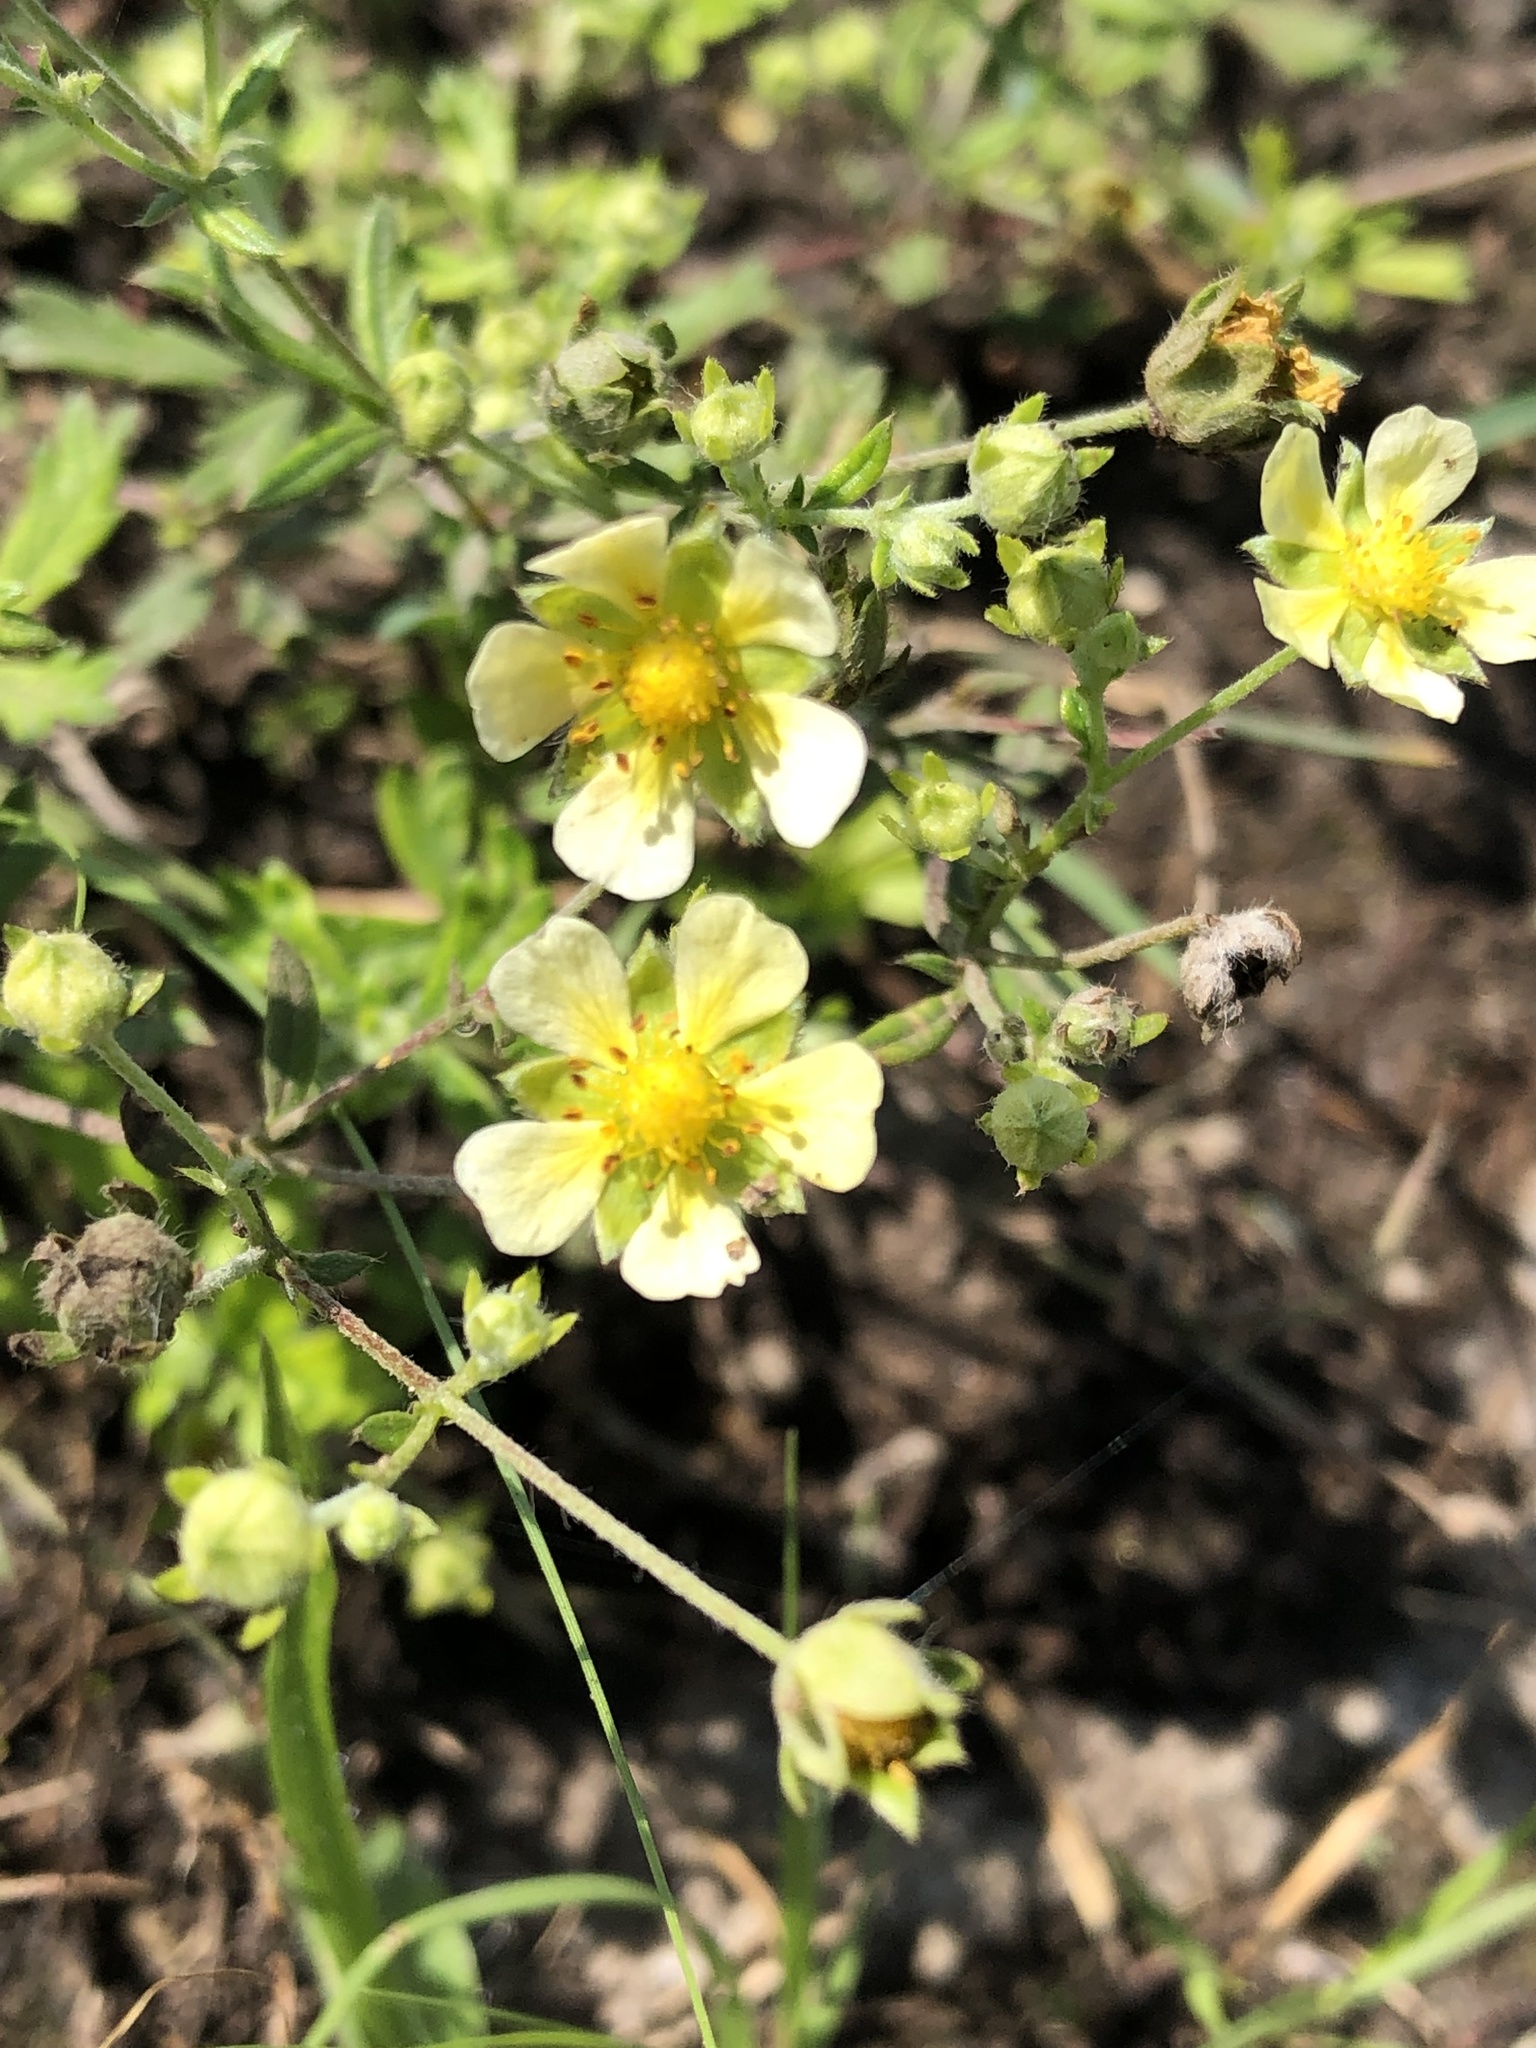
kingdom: Plantae
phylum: Tracheophyta
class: Magnoliopsida
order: Rosales
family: Rosaceae
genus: Potentilla
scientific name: Potentilla argentea
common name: Hoary cinquefoil
